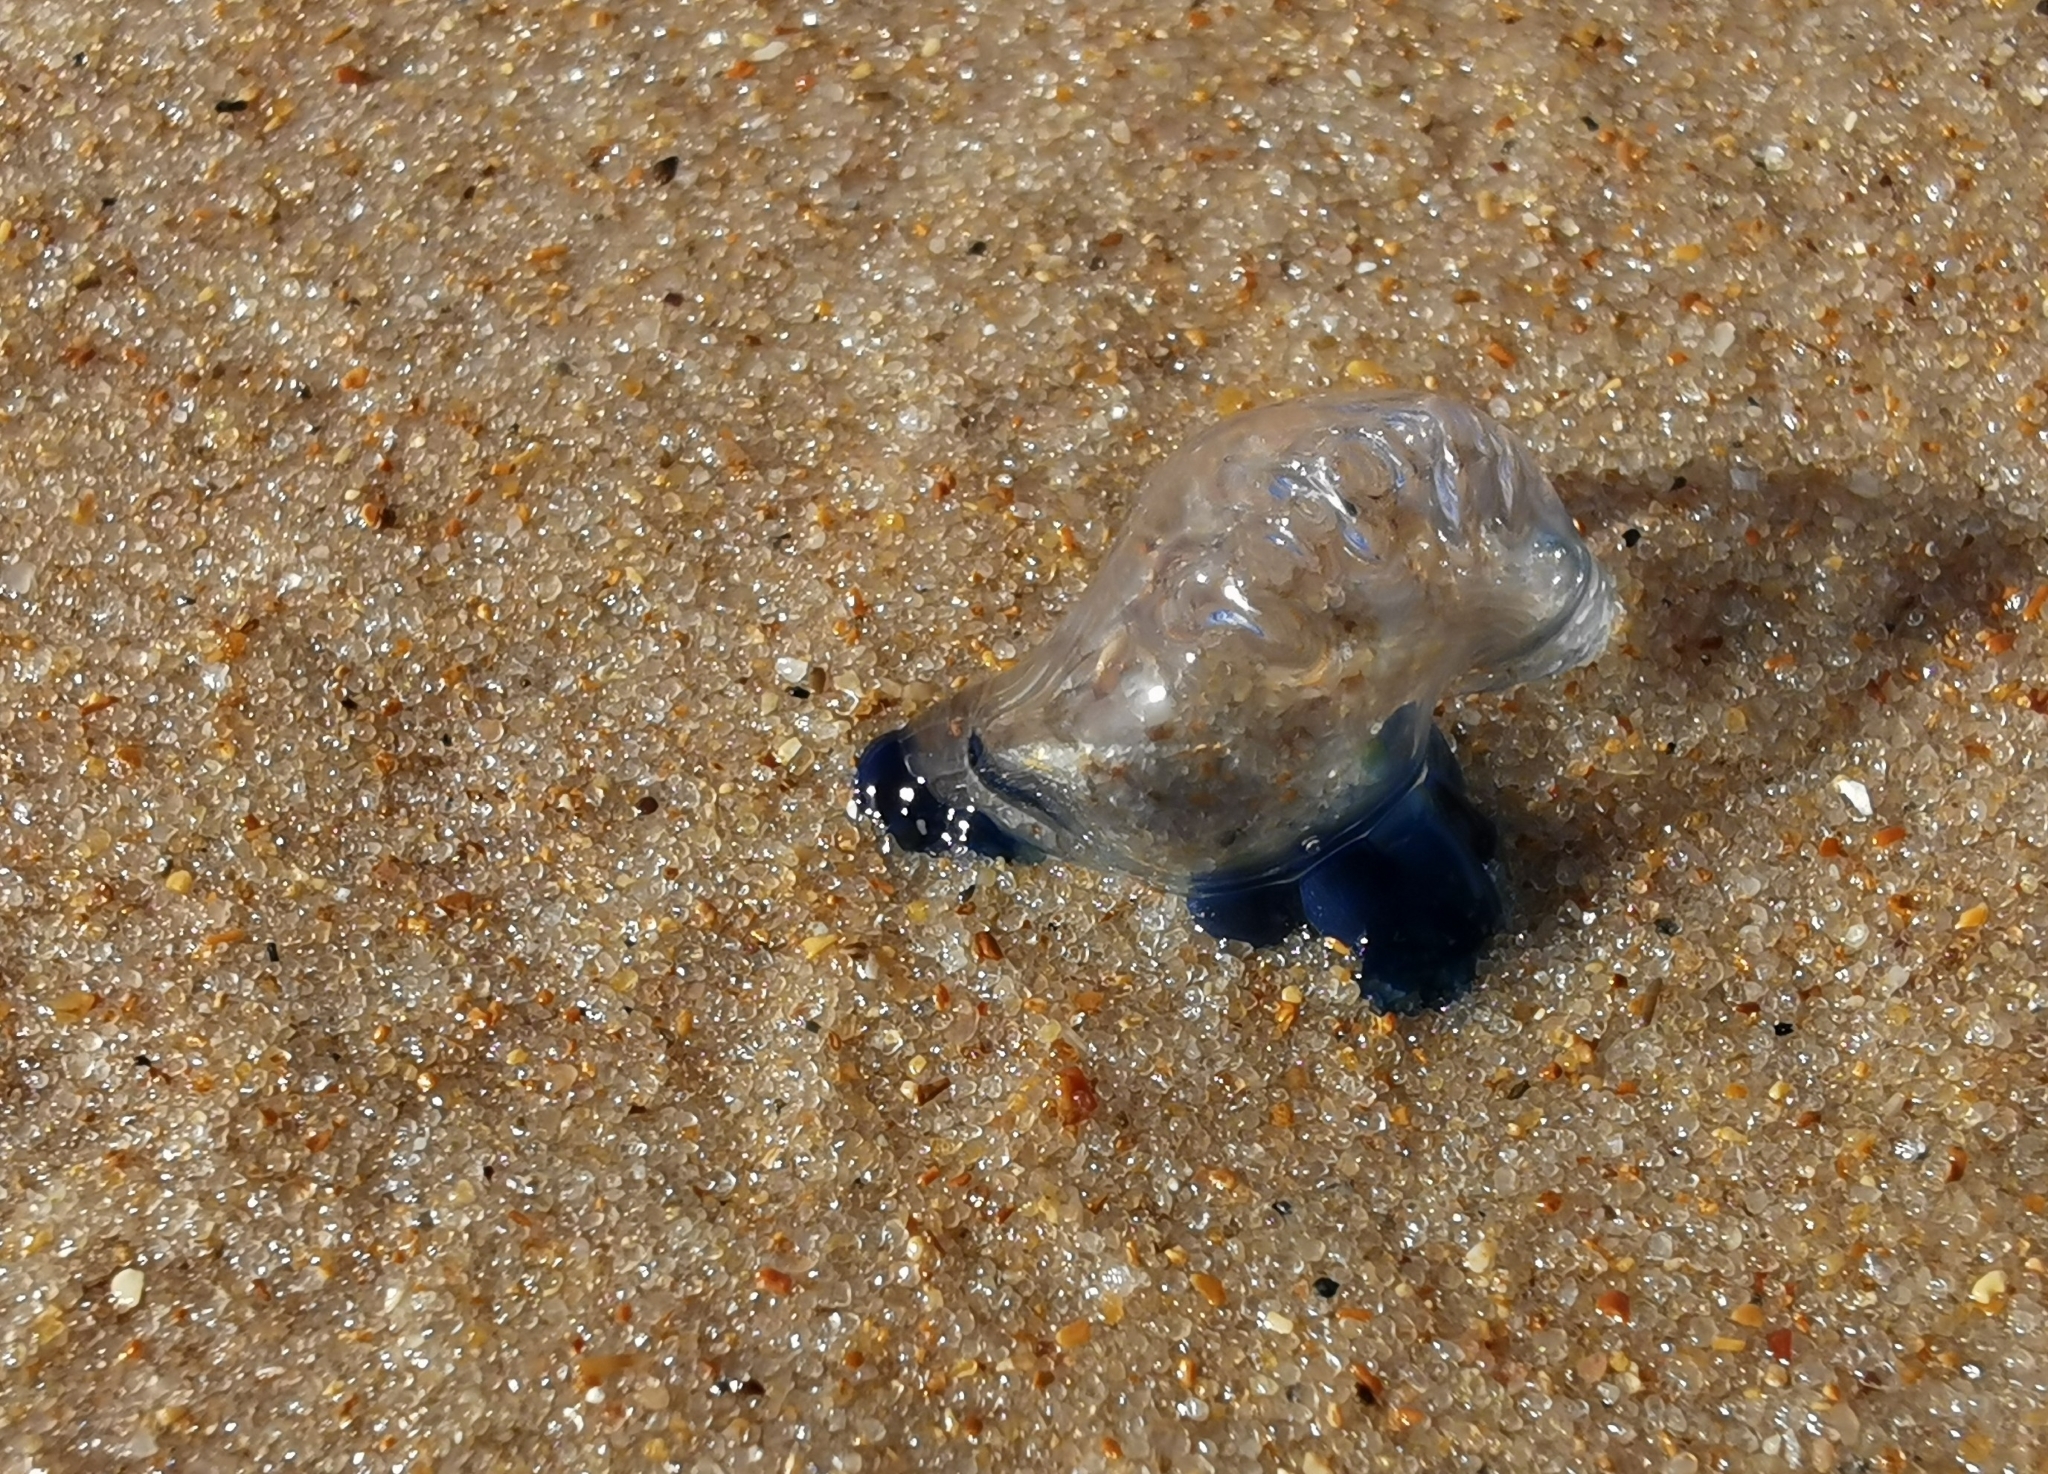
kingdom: Animalia
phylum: Cnidaria
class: Hydrozoa
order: Siphonophorae
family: Physaliidae
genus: Physalia
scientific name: Physalia physalis
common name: Portuguese man-of-war
